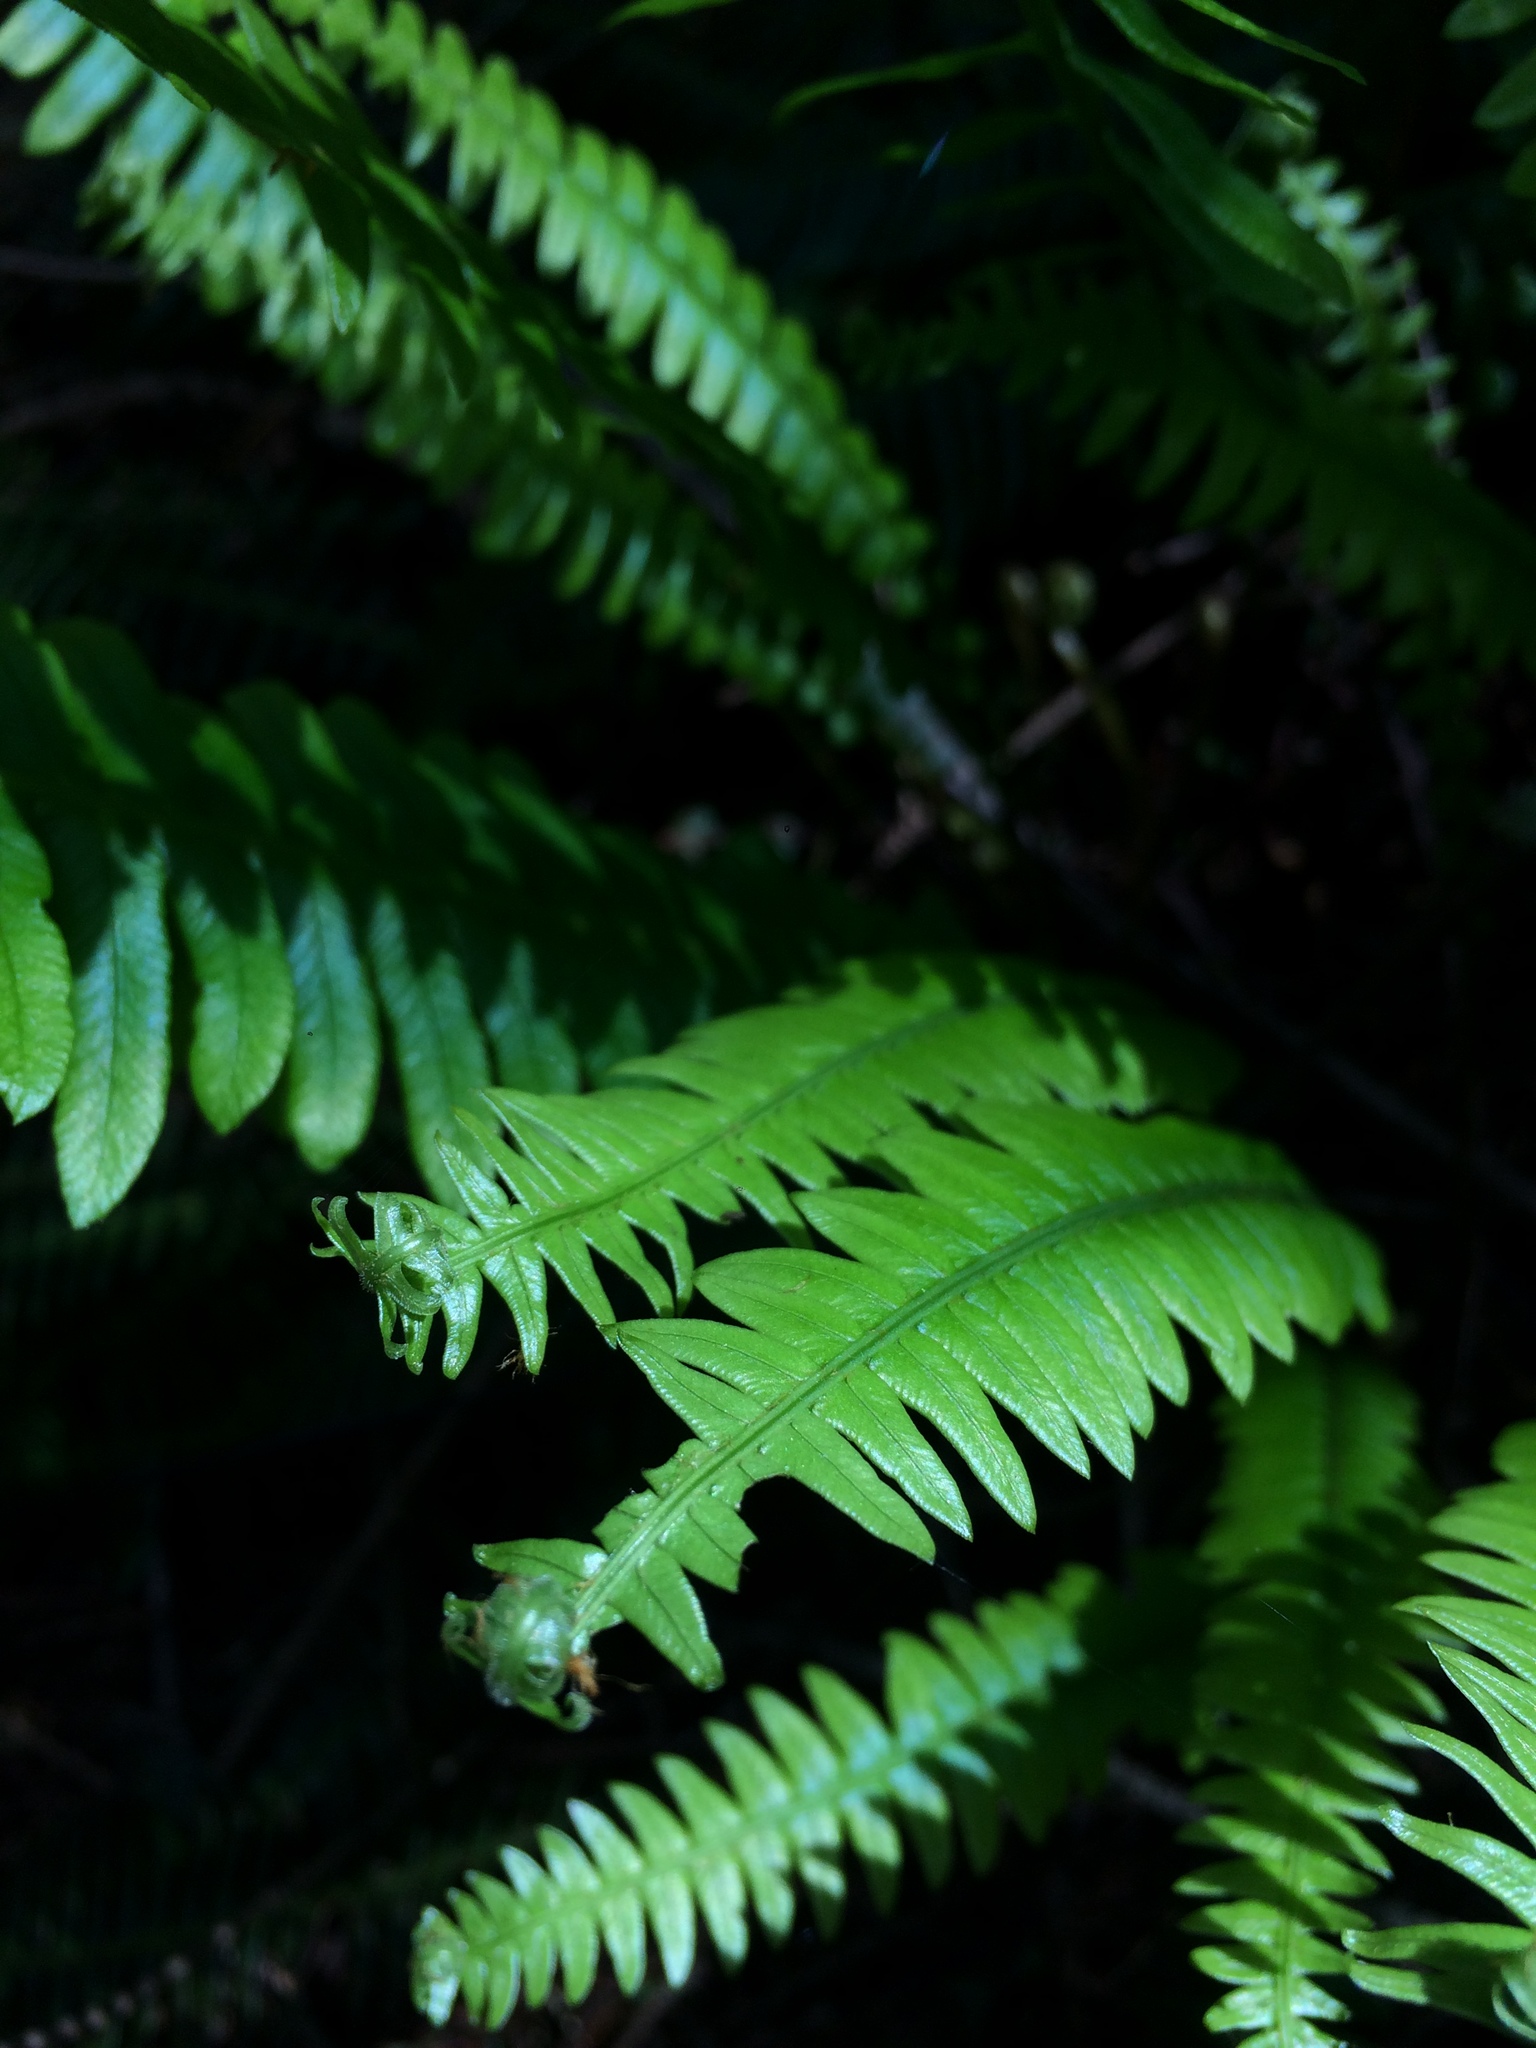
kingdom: Plantae
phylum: Tracheophyta
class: Polypodiopsida
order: Polypodiales
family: Blechnaceae
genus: Struthiopteris
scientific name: Struthiopteris spicant
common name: Deer fern
